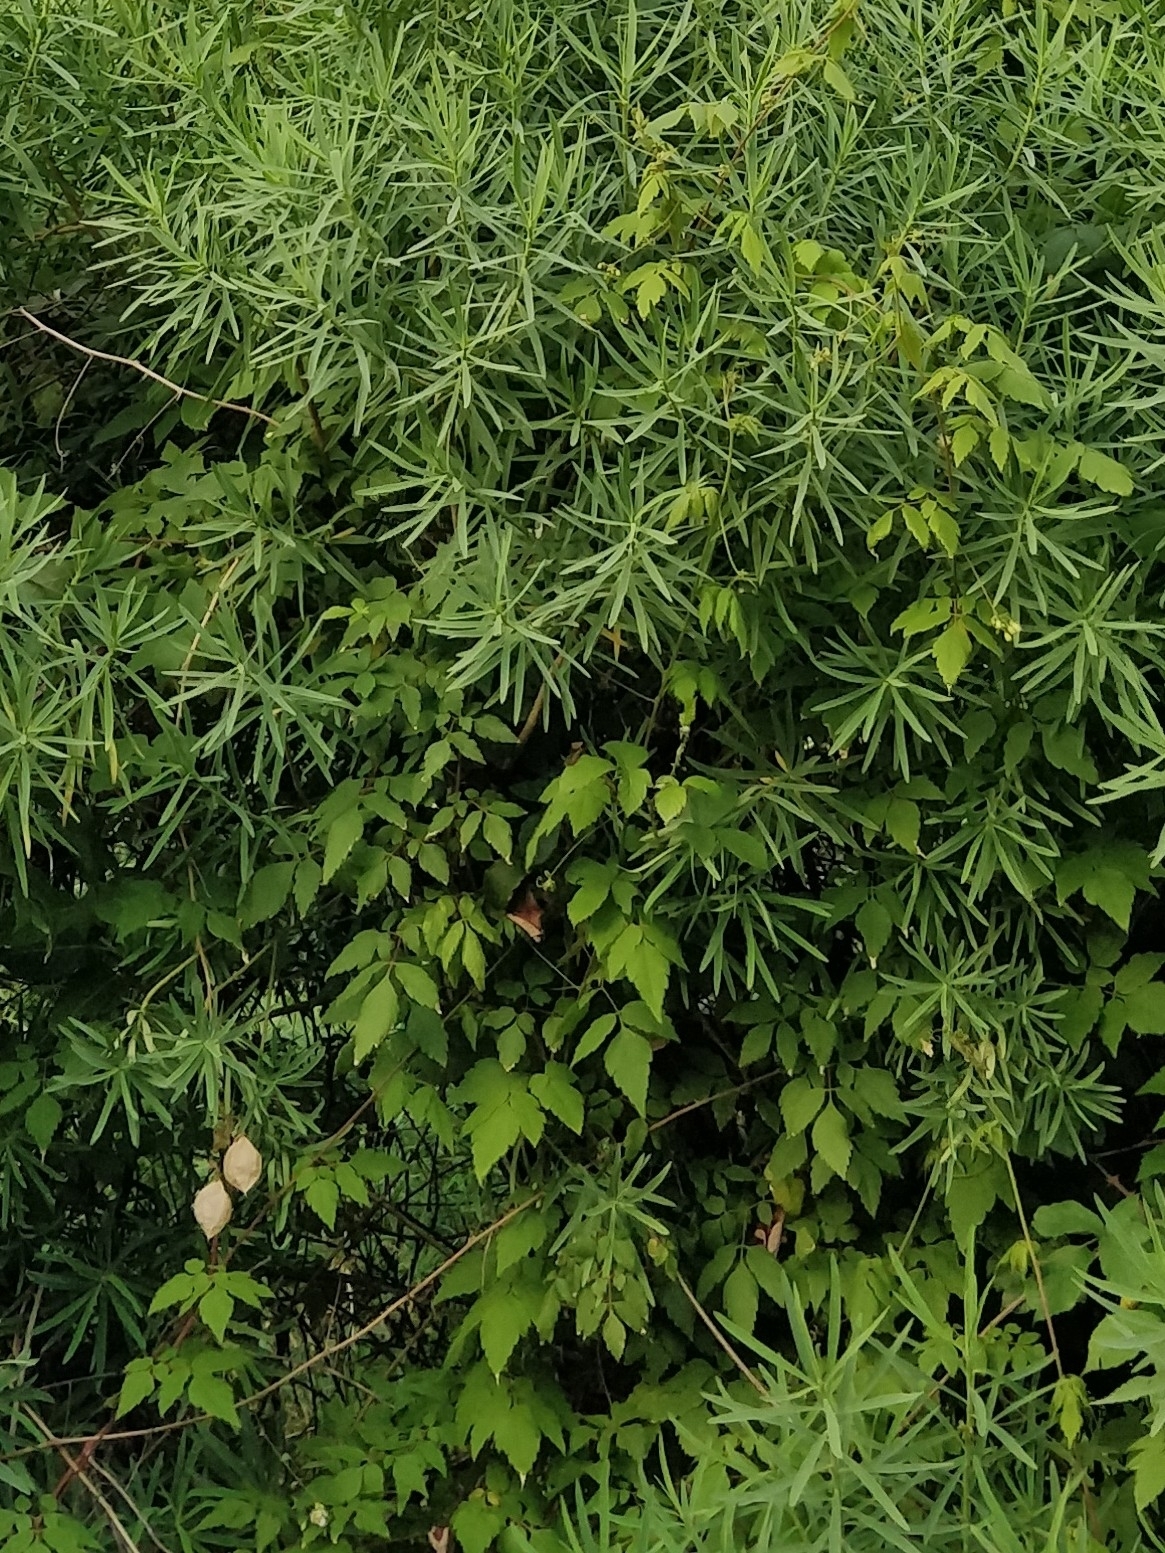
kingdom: Plantae
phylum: Tracheophyta
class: Magnoliopsida
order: Sapindales
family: Sapindaceae
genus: Cardiospermum
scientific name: Cardiospermum grandiflorum
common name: Balloon vine
